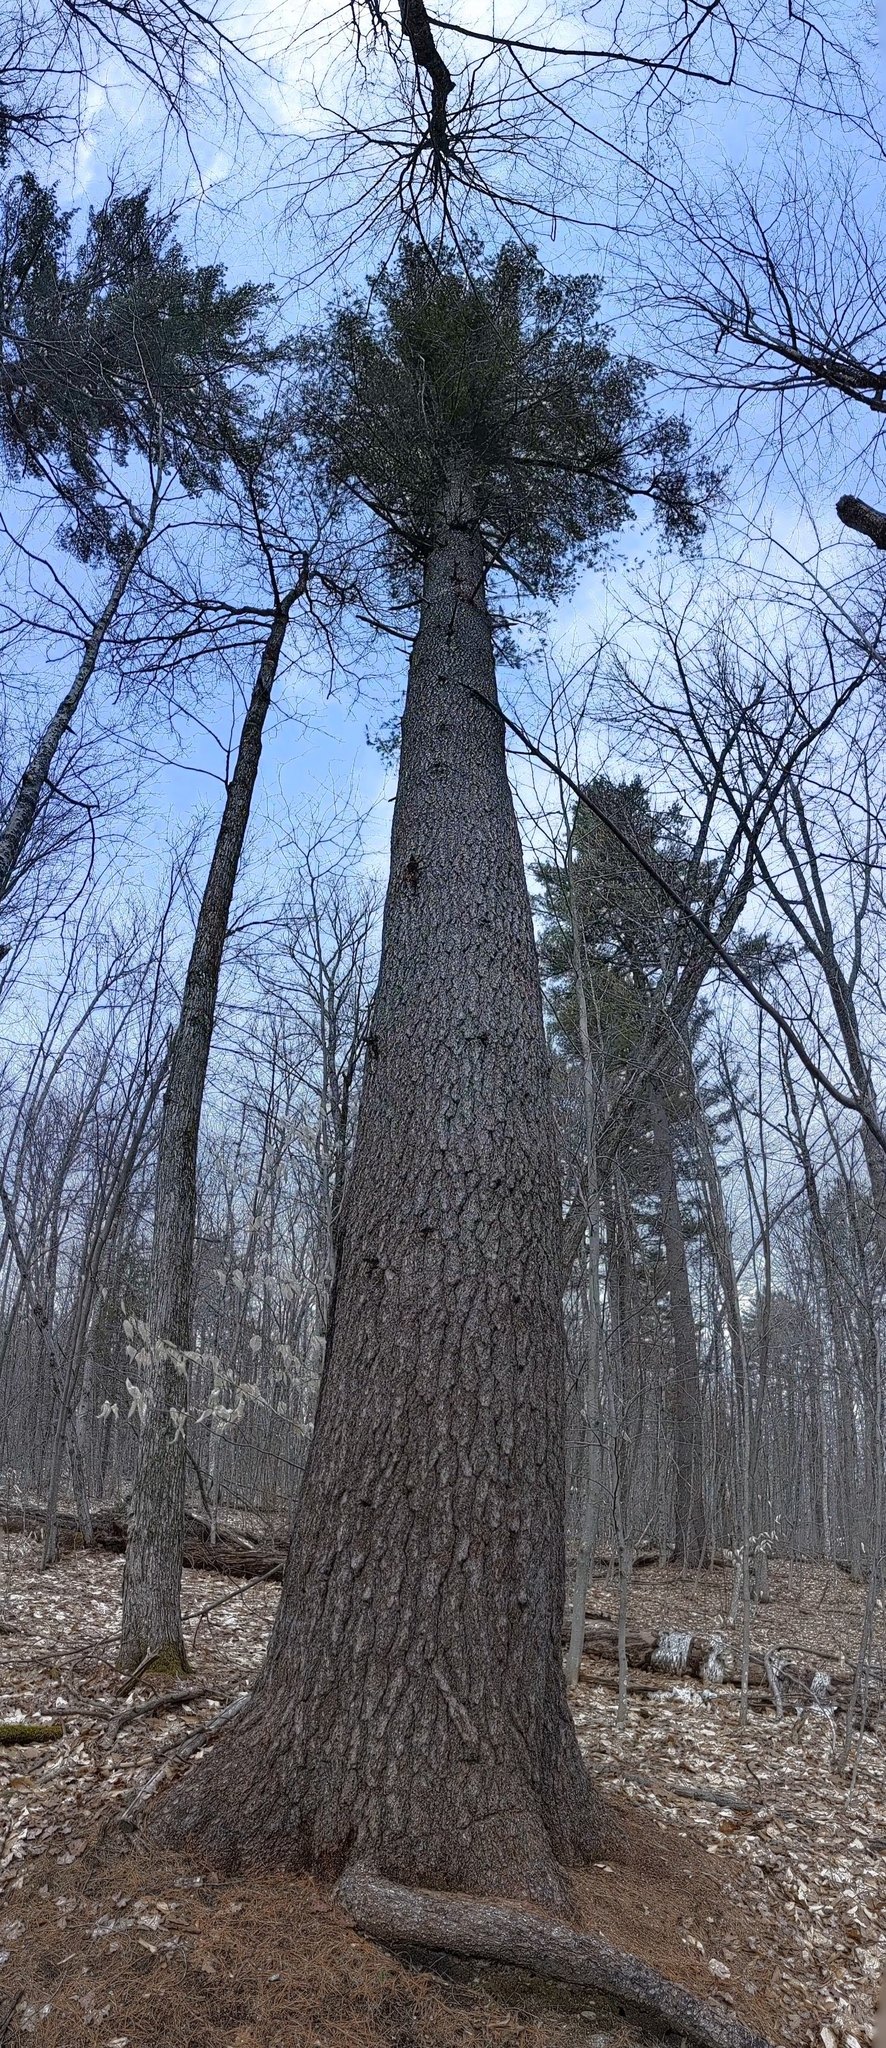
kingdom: Plantae
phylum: Tracheophyta
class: Pinopsida
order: Pinales
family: Pinaceae
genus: Pinus
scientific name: Pinus strobus
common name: Weymouth pine
